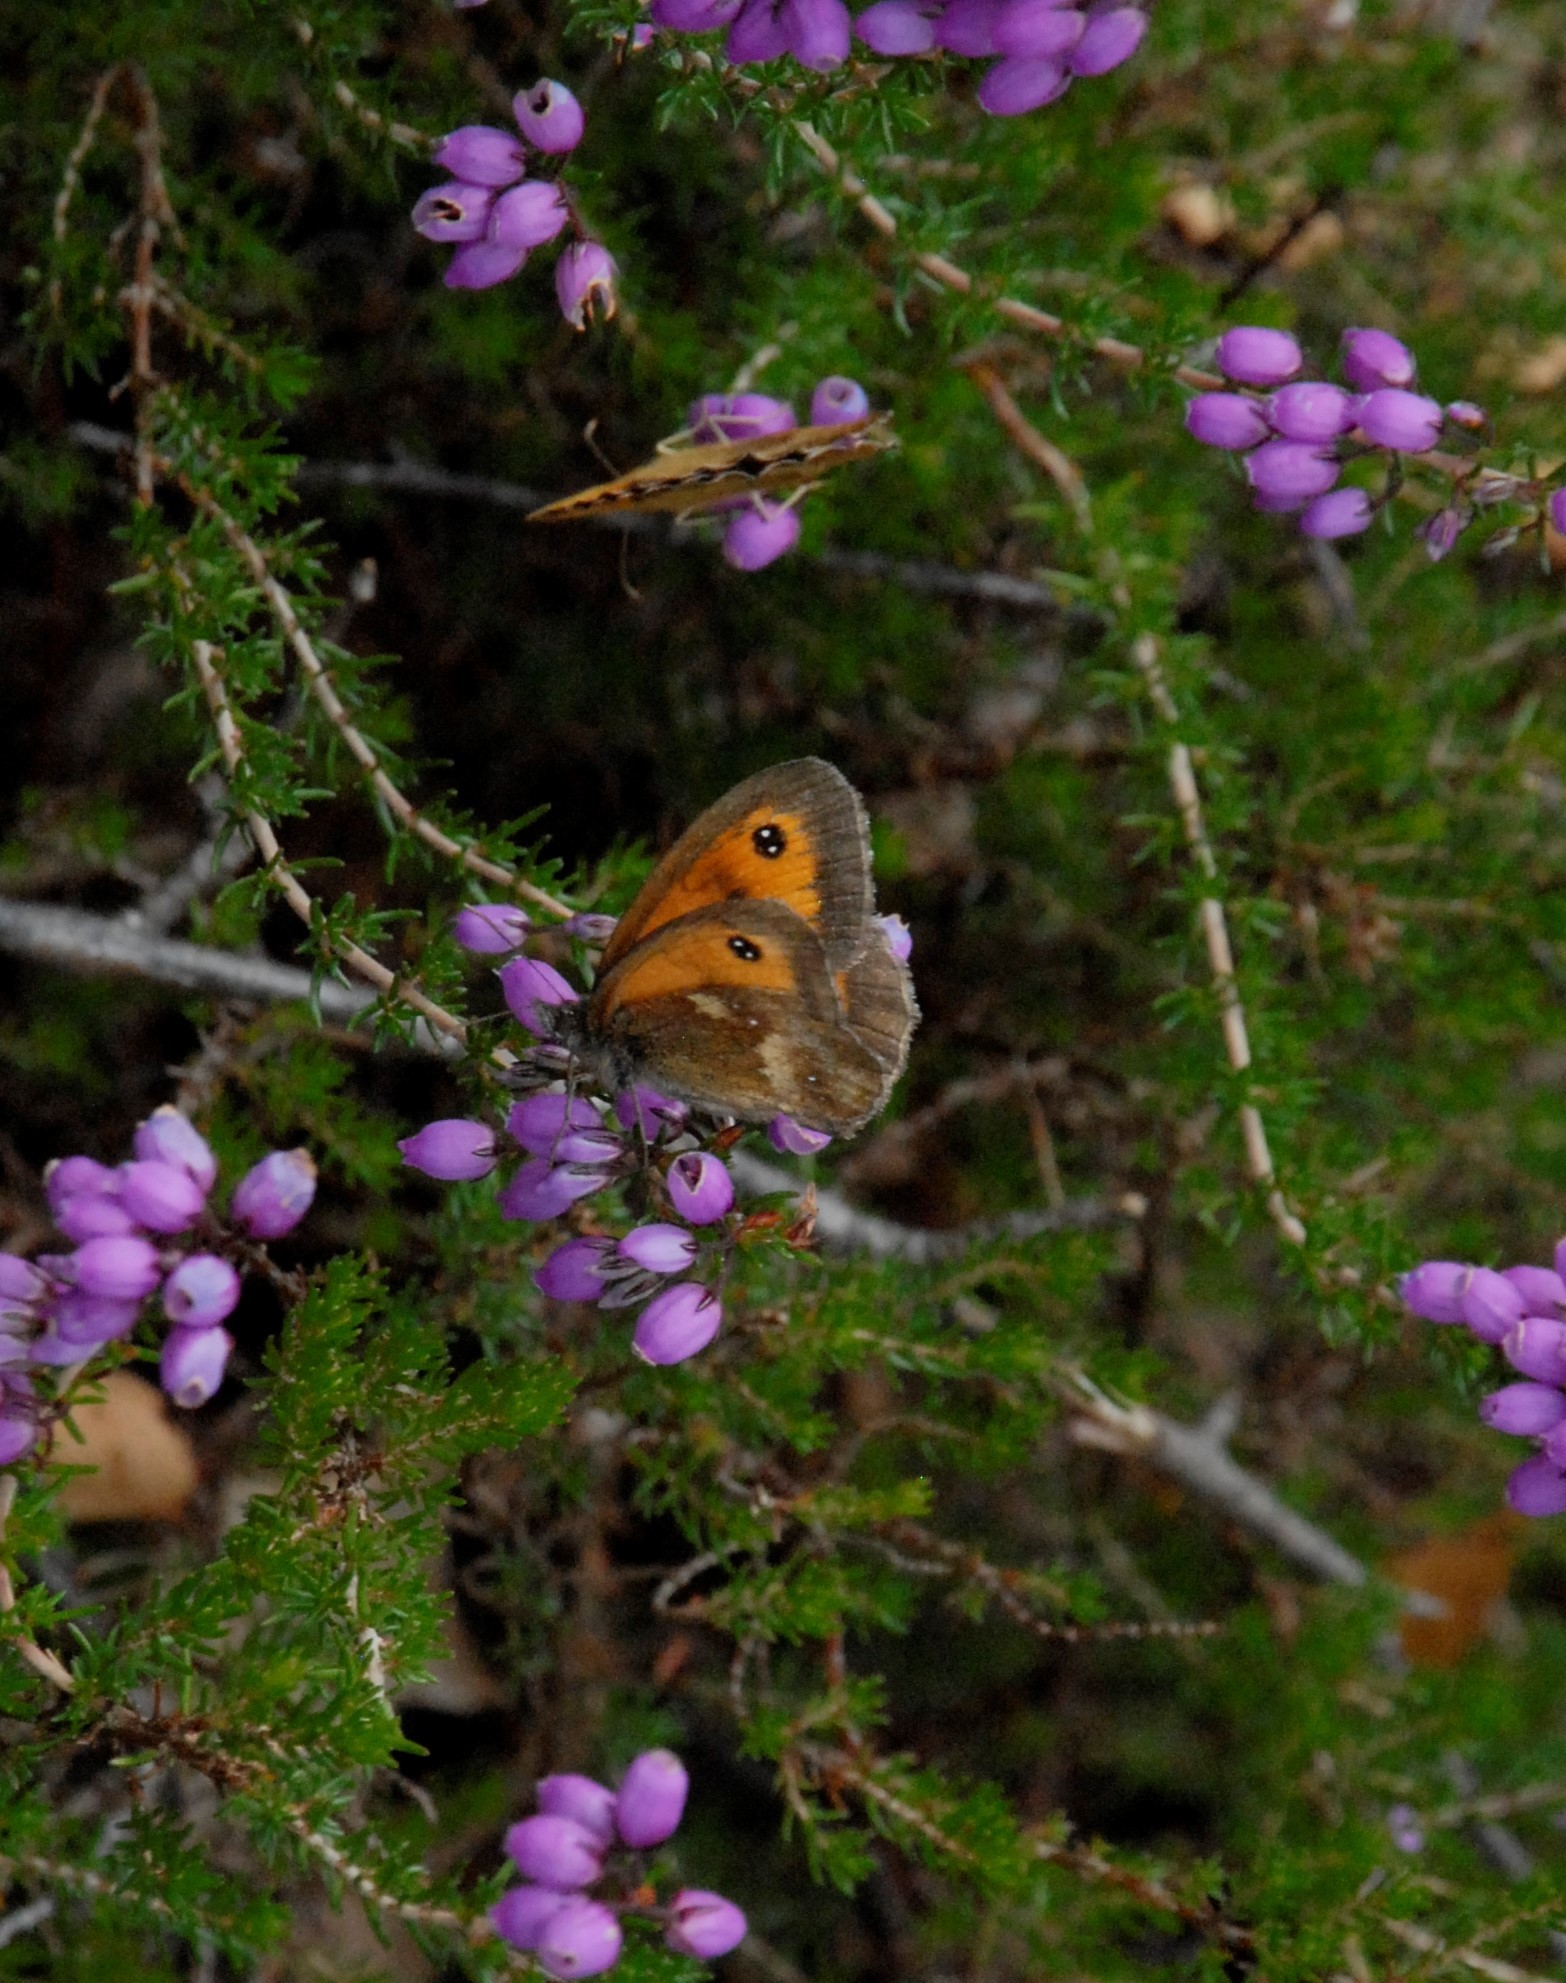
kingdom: Animalia
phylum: Arthropoda
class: Insecta
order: Lepidoptera
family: Nymphalidae
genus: Pyronia
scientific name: Pyronia tithonus
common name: Gatekeeper
